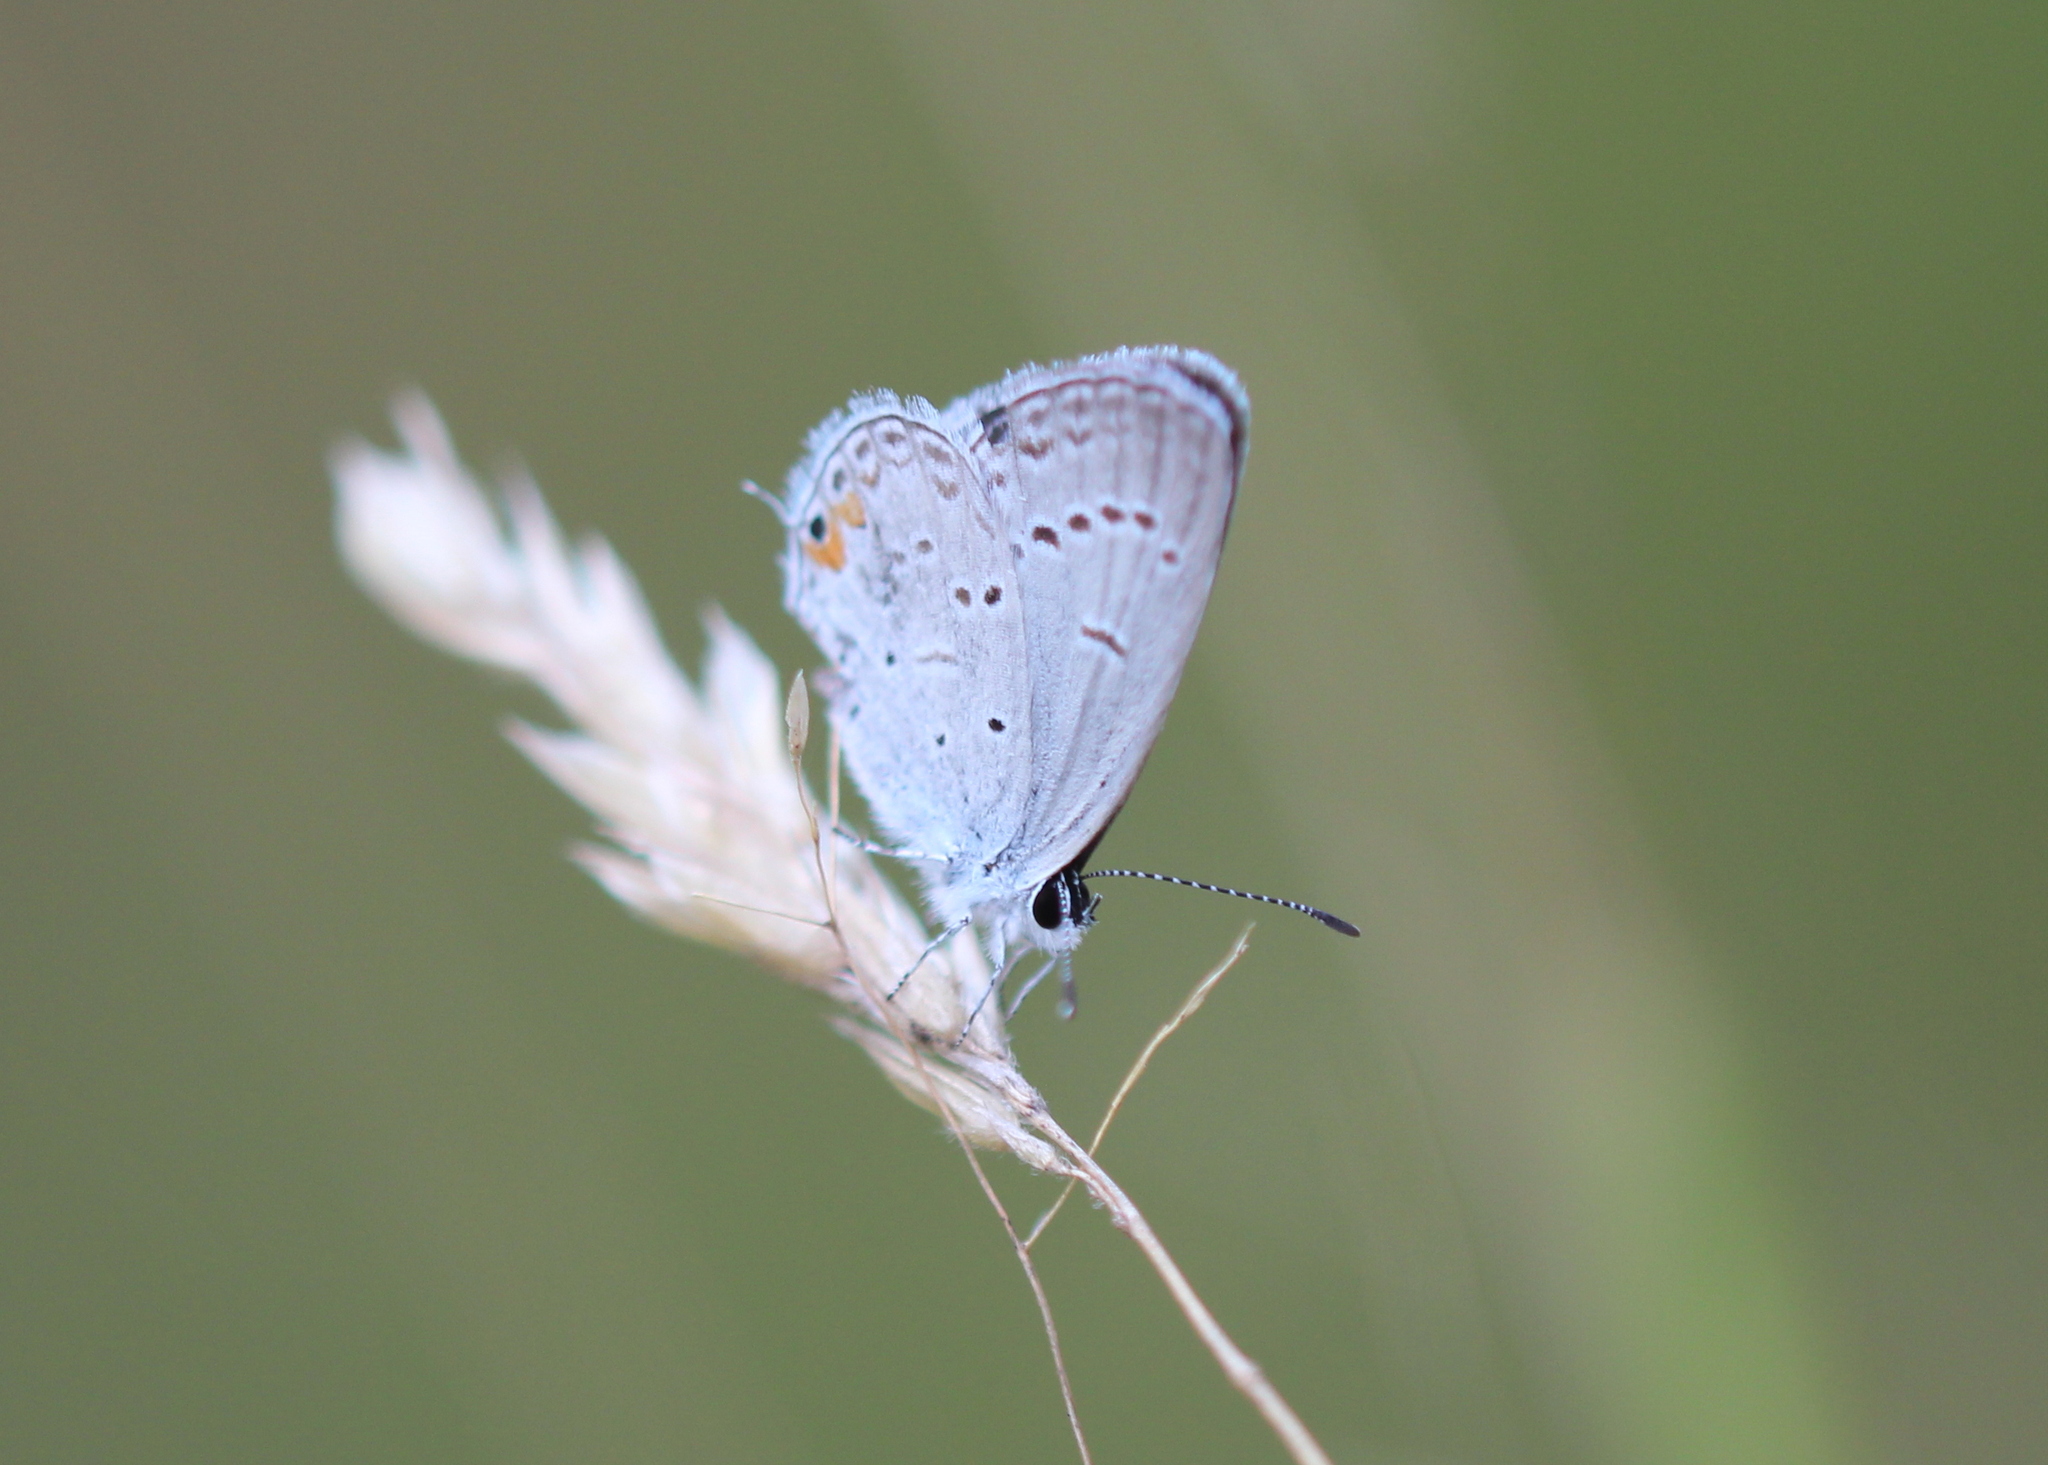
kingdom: Animalia
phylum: Arthropoda
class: Insecta
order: Lepidoptera
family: Lycaenidae
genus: Elkalyce
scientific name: Elkalyce comyntas
